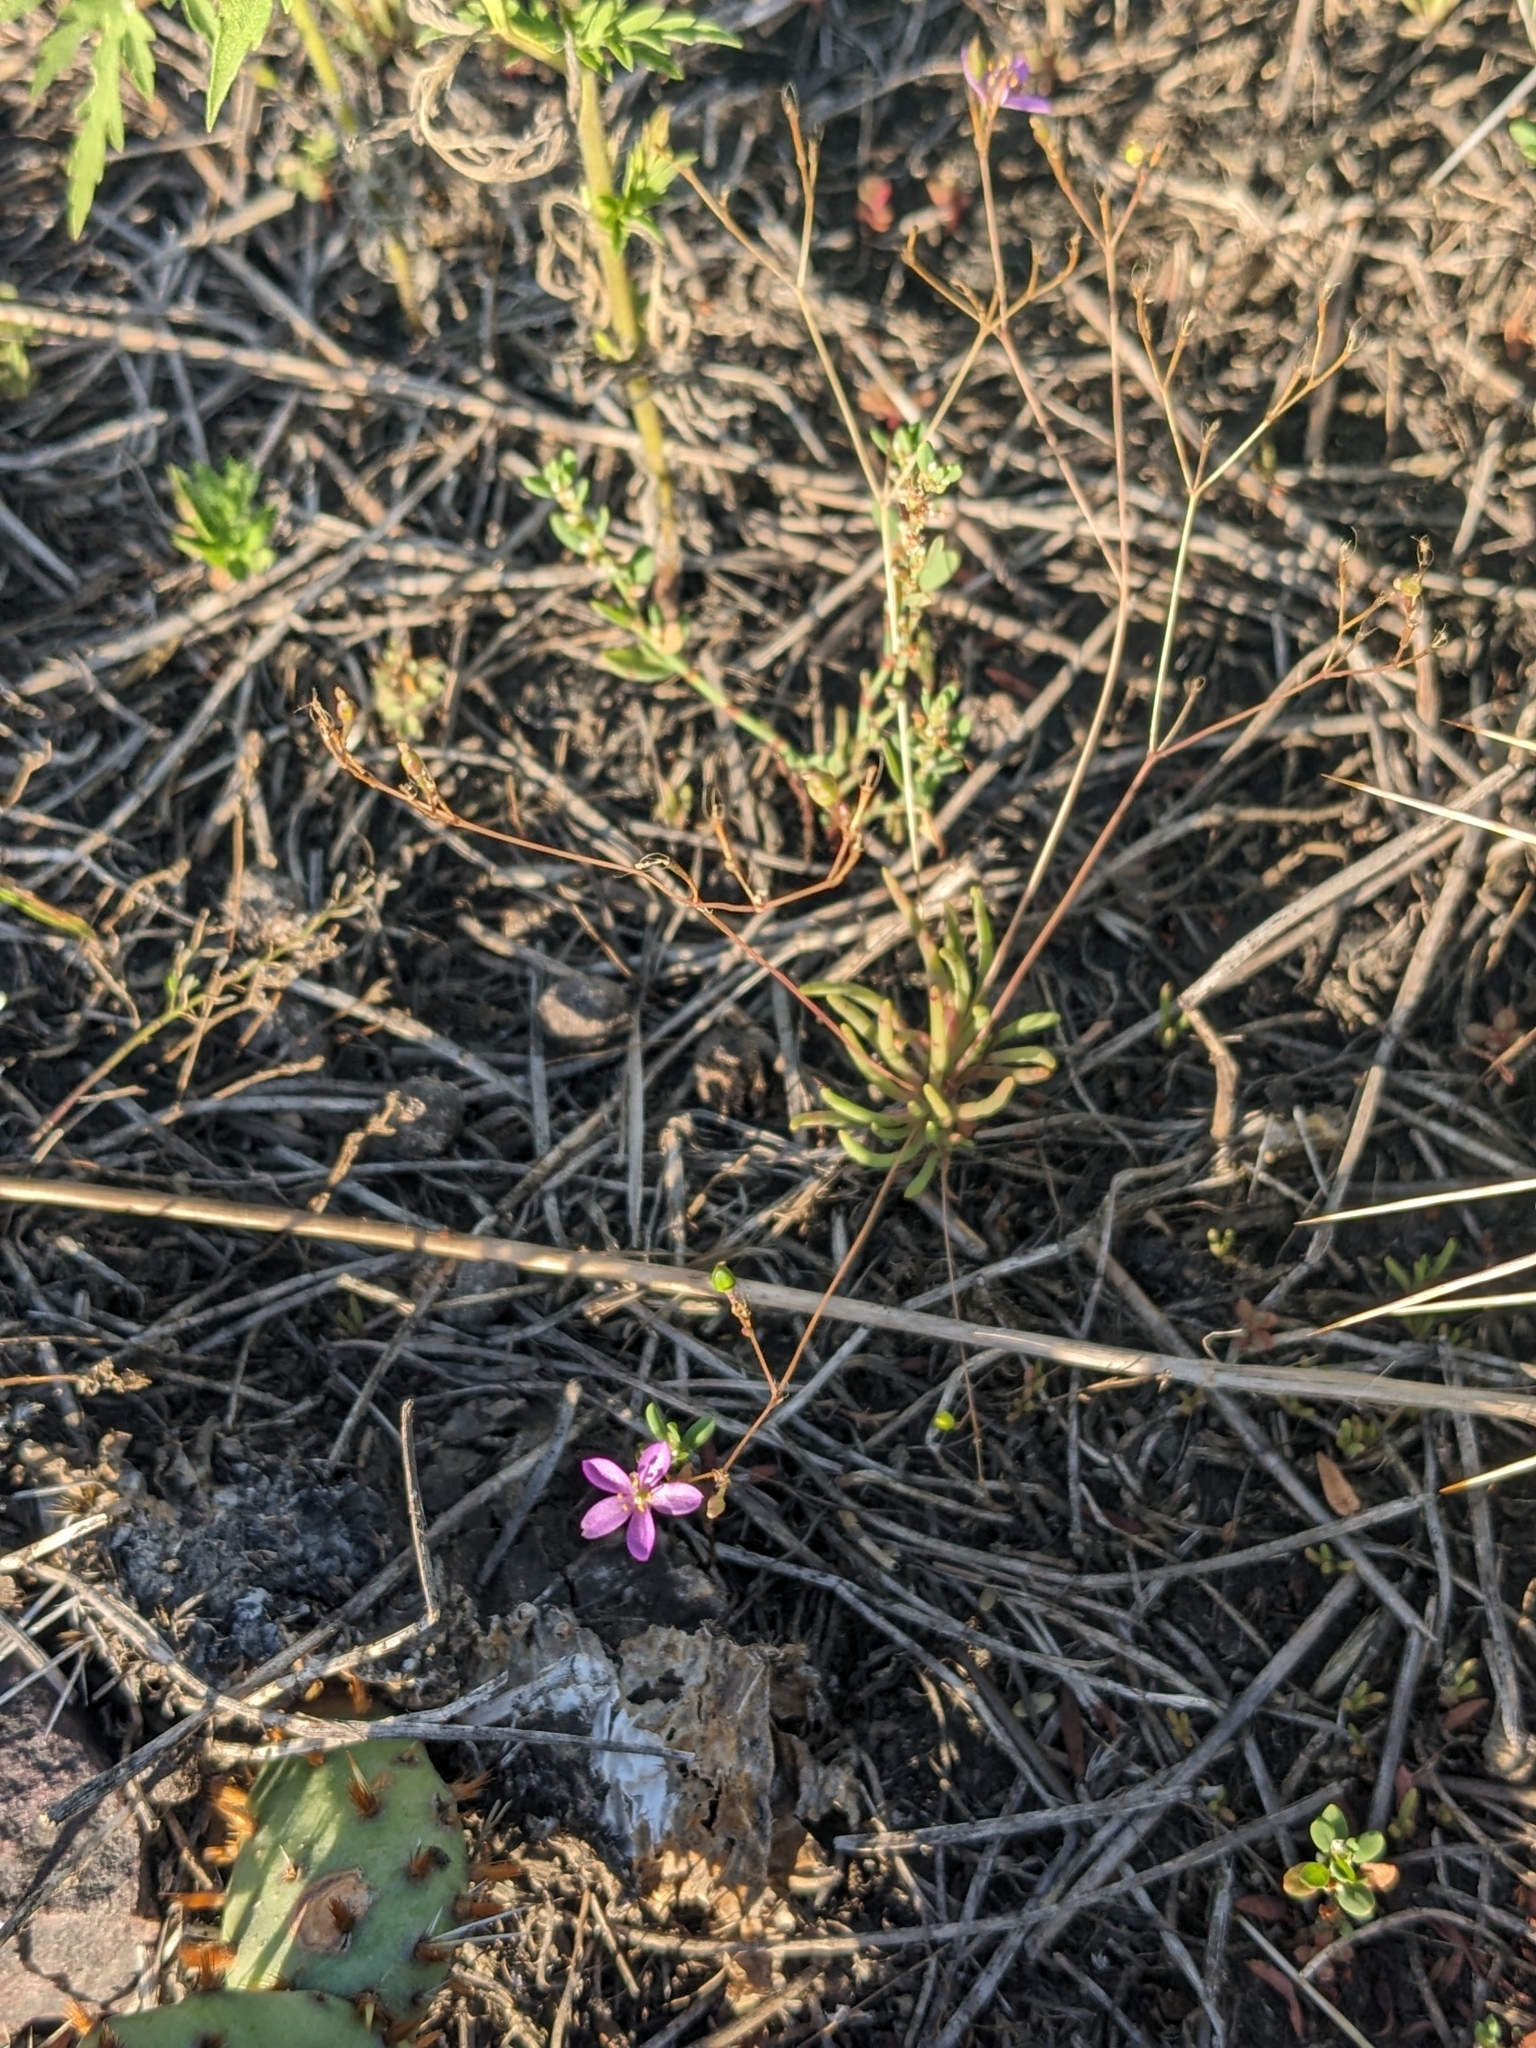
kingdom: Plantae
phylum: Tracheophyta
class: Magnoliopsida
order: Caryophyllales
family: Montiaceae
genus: Phemeranthus
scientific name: Phemeranthus parviflorus
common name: Sunbright
